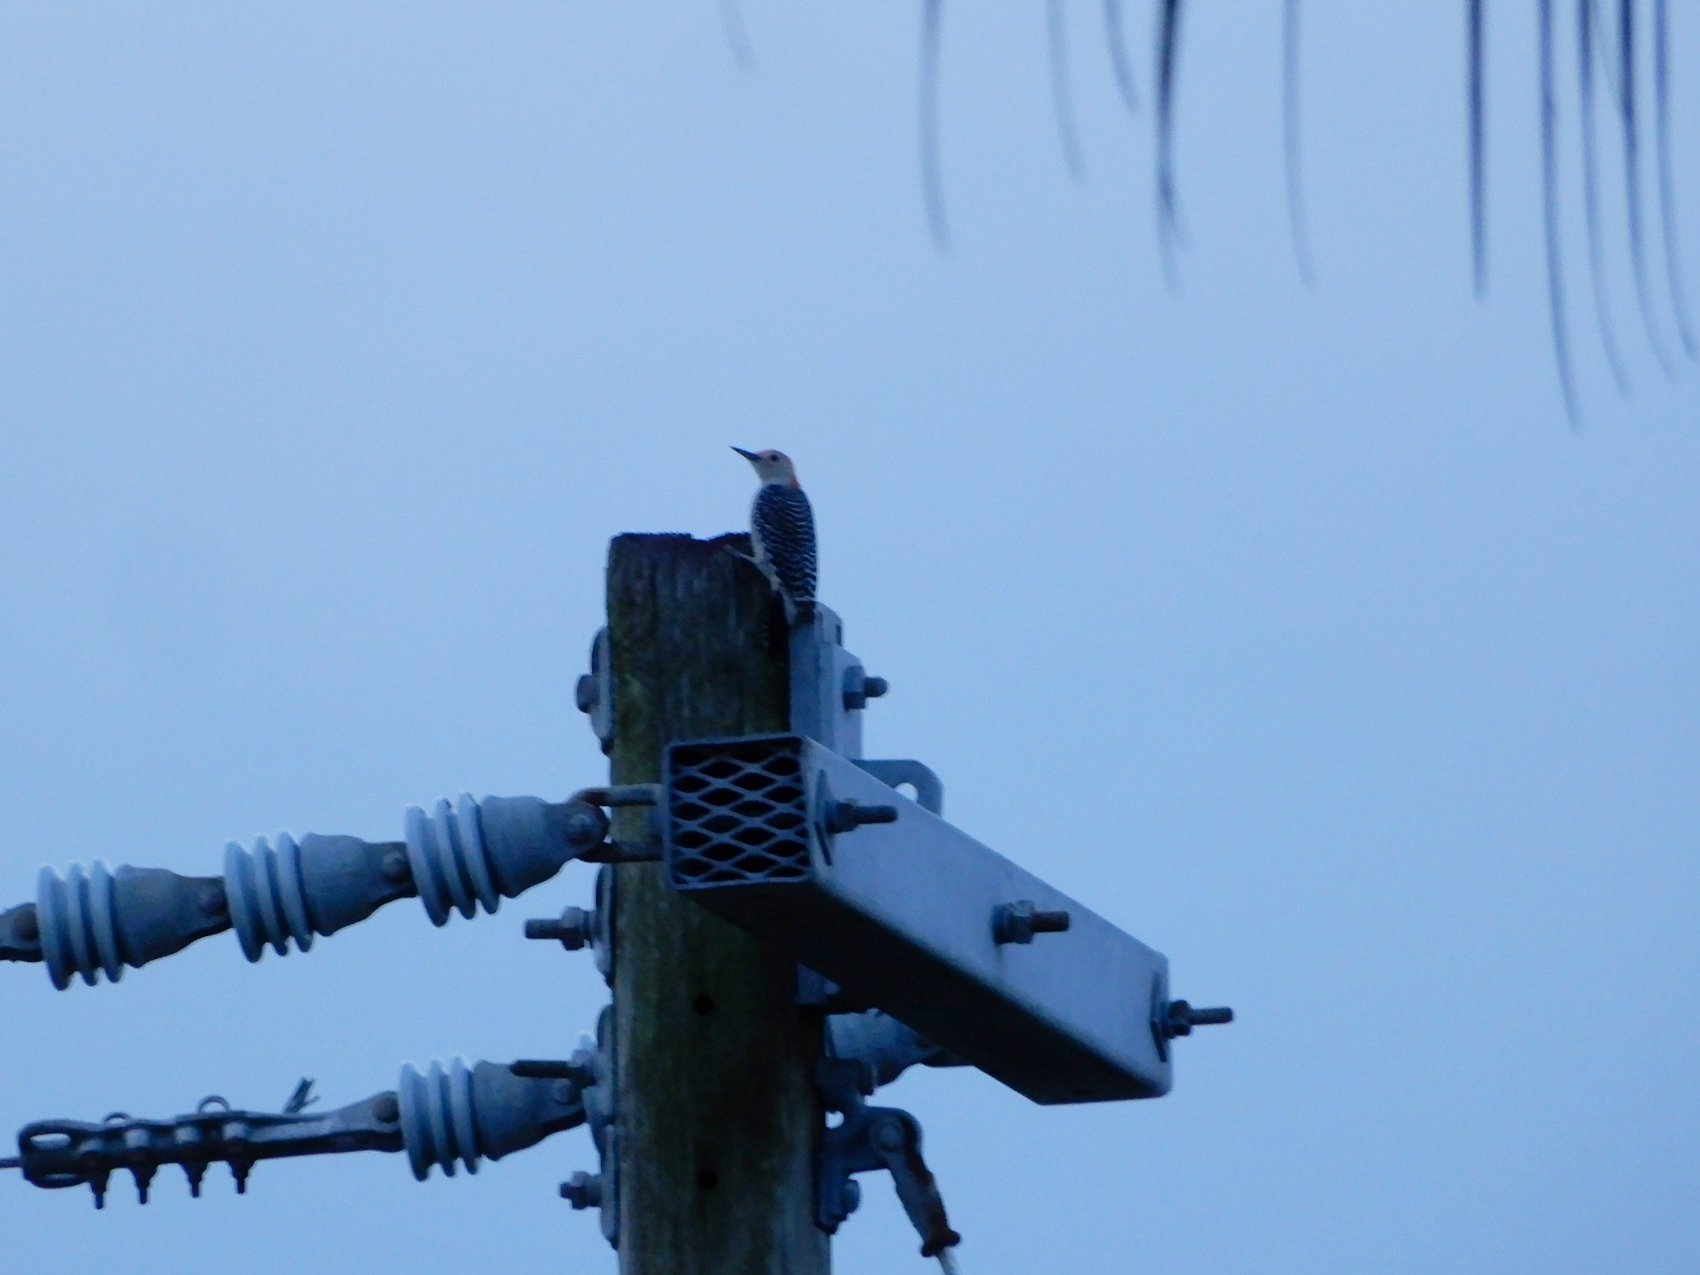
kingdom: Animalia
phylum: Chordata
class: Aves
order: Piciformes
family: Picidae
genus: Melanerpes
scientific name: Melanerpes carolinus
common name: Red-bellied woodpecker
